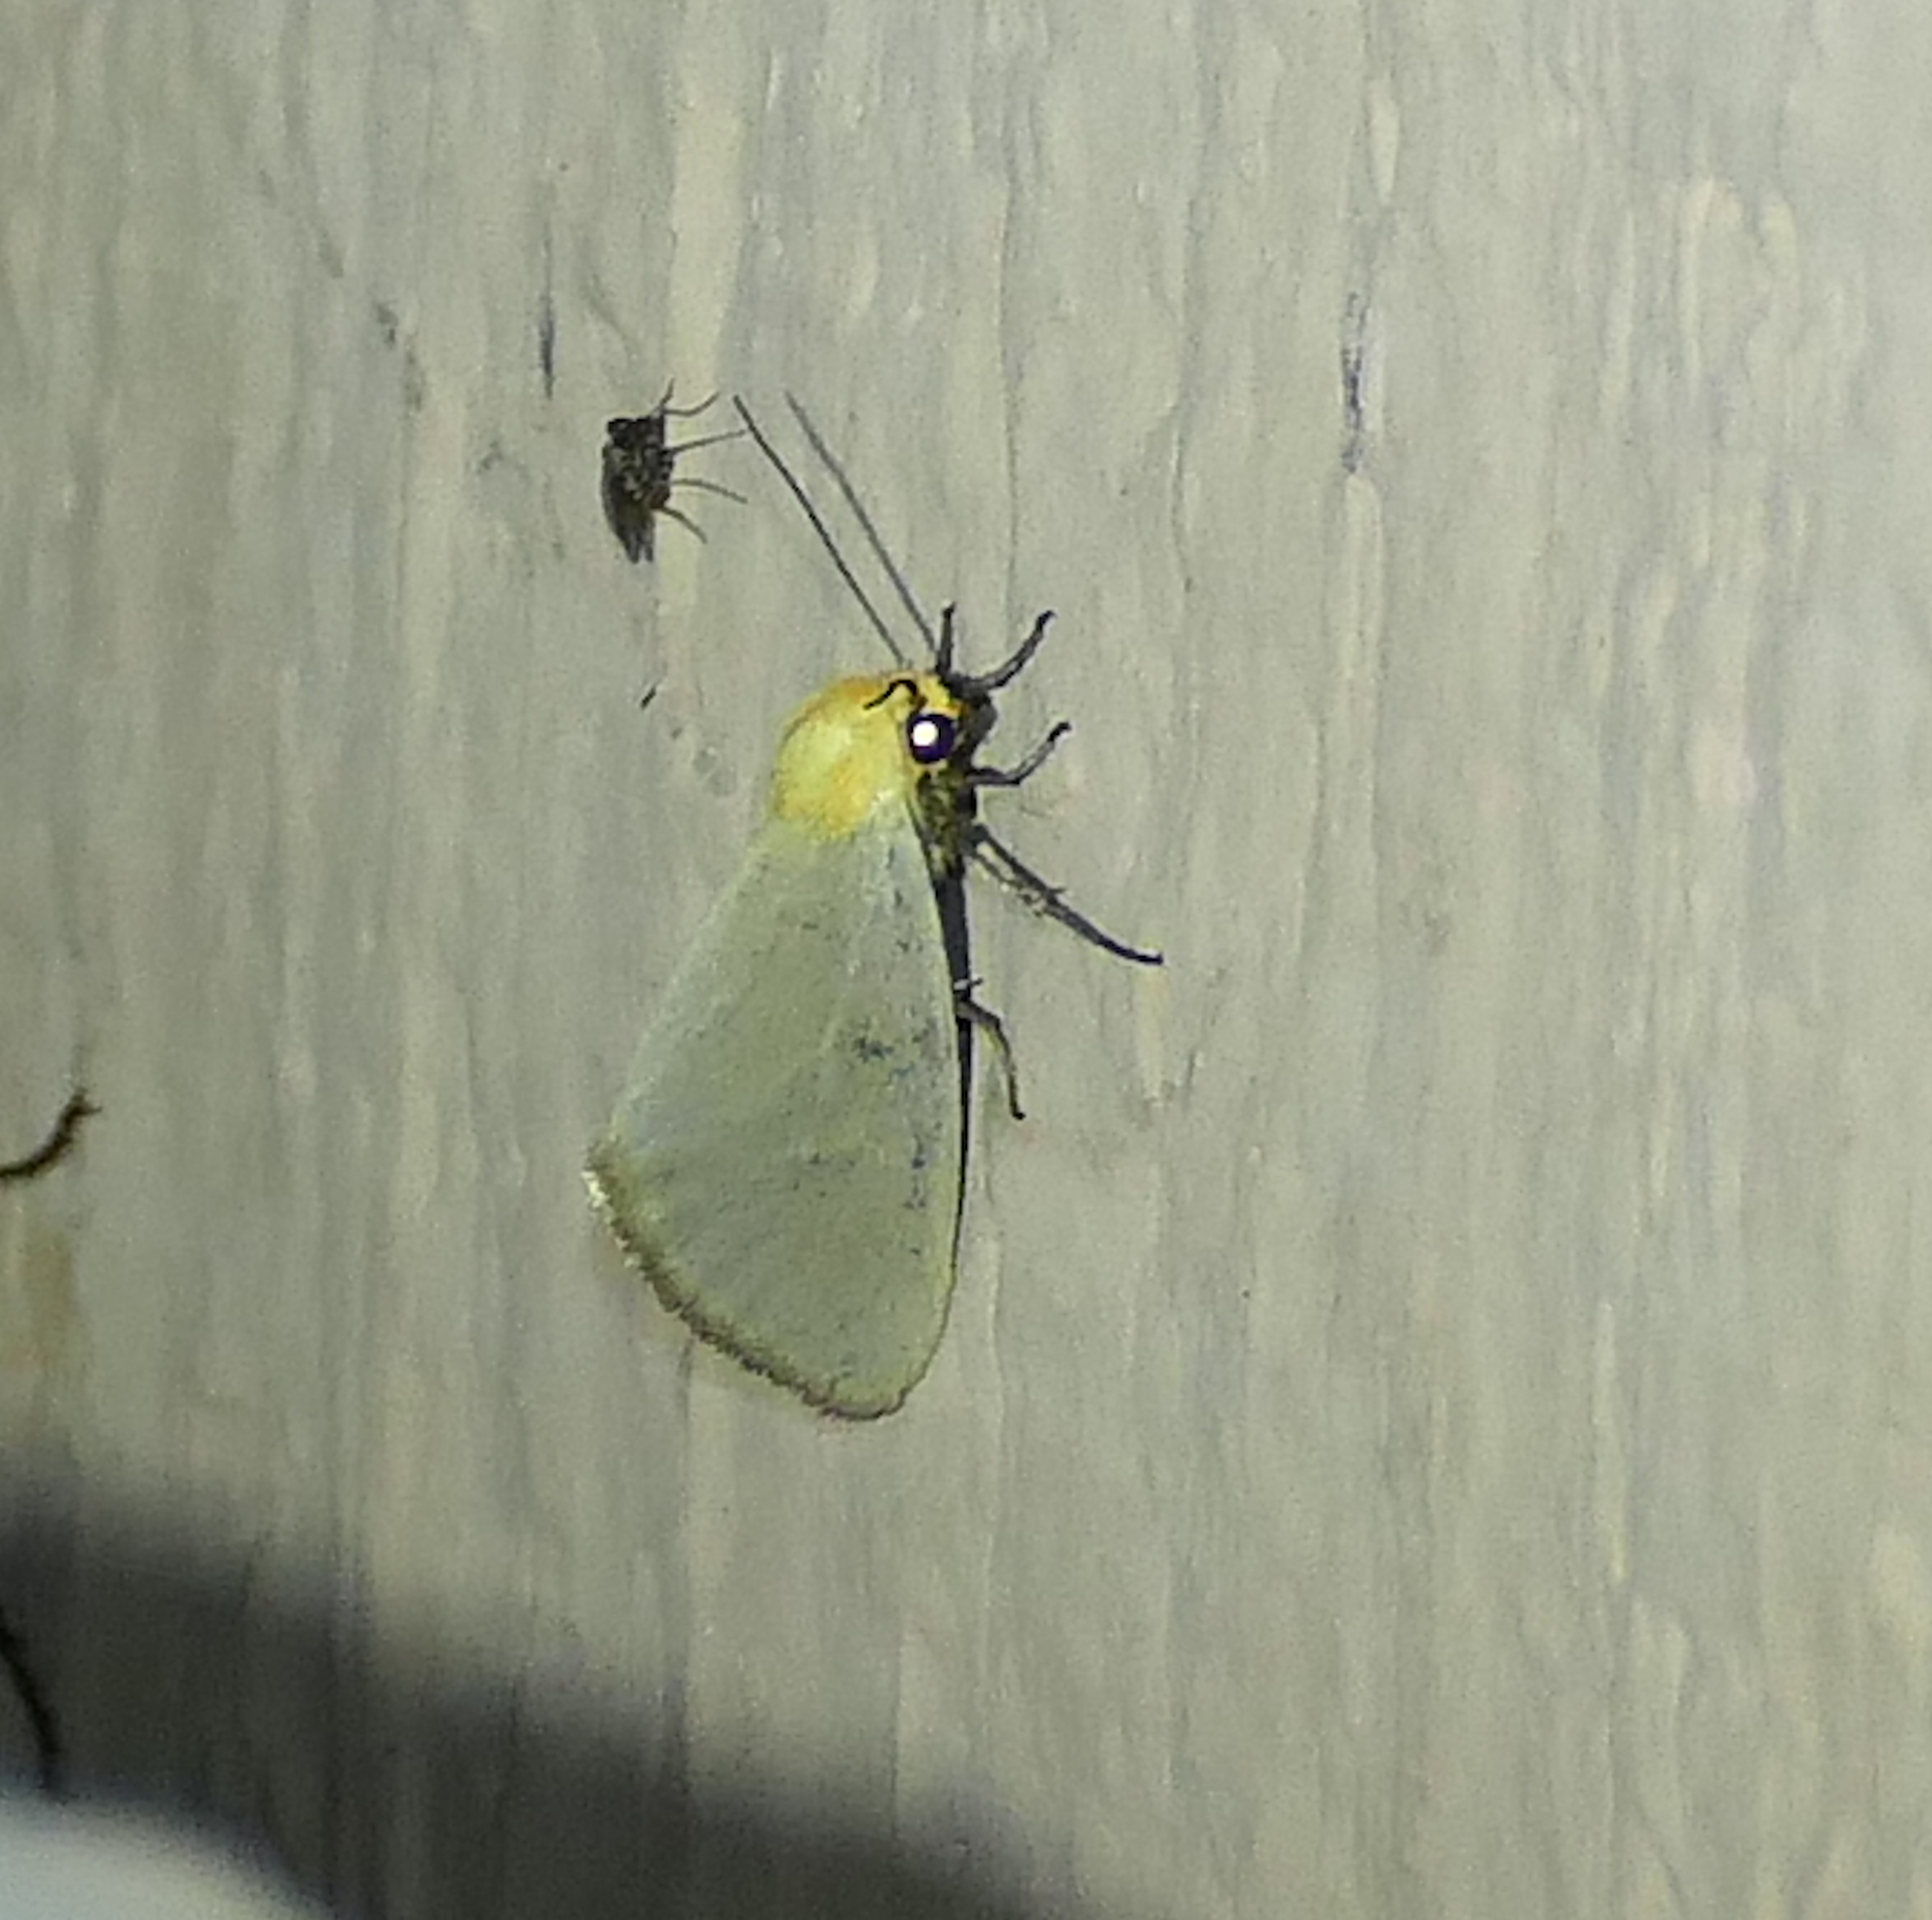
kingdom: Animalia
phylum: Arthropoda
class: Insecta
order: Lepidoptera
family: Noctuidae
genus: Chrysoecia
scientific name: Chrysoecia thoracica
